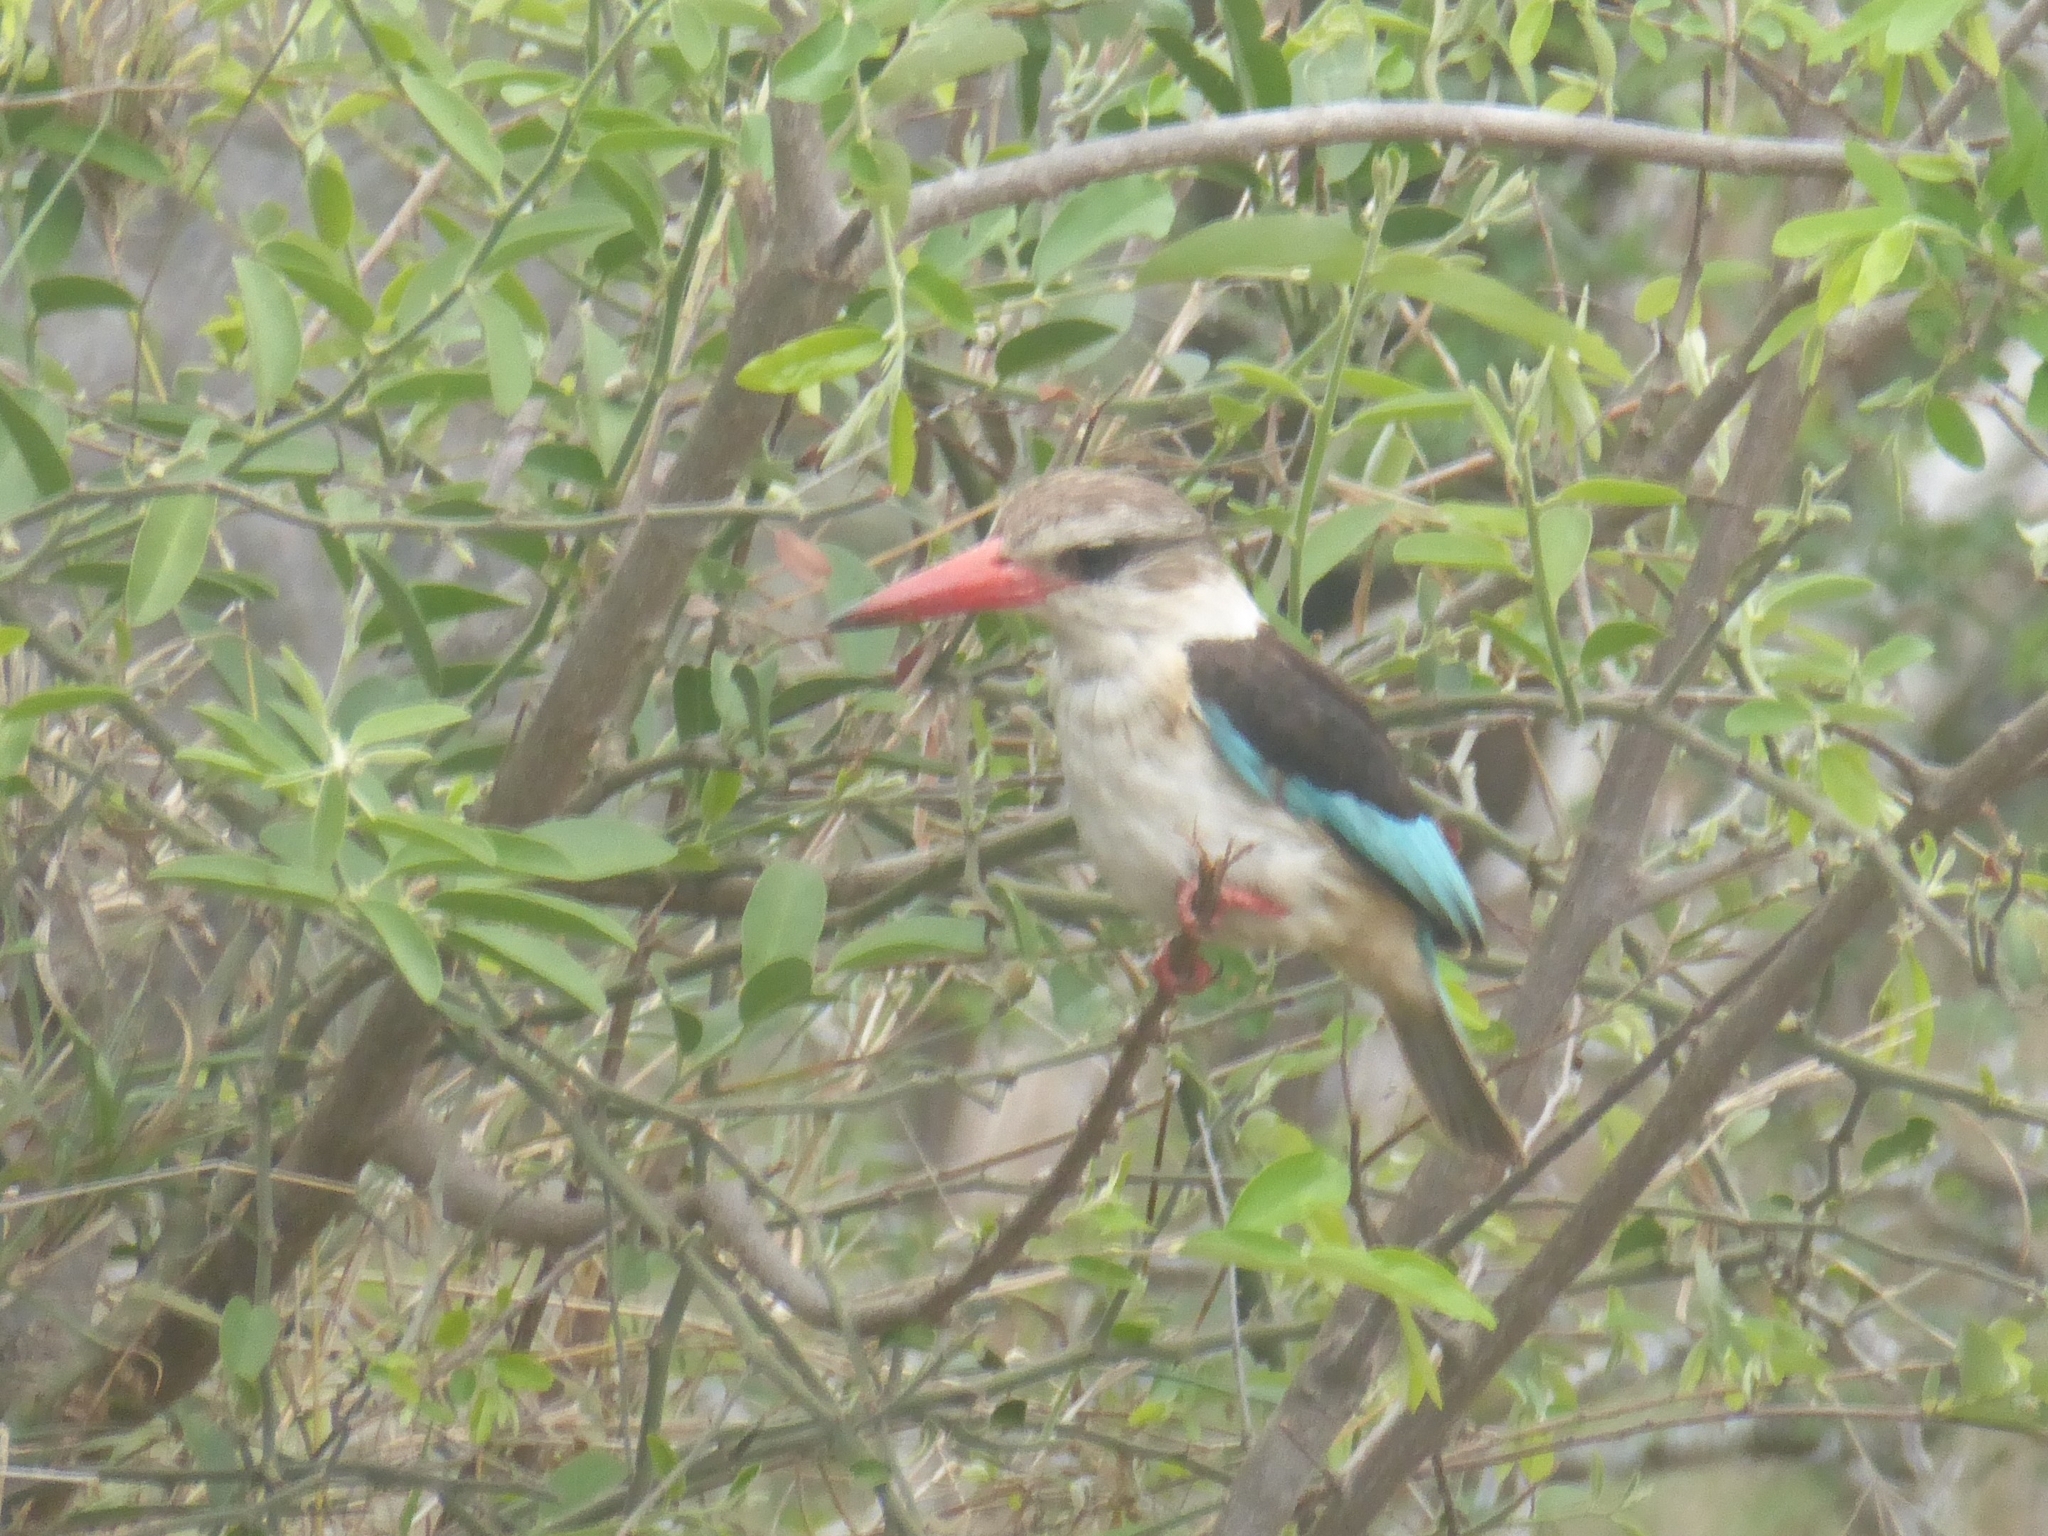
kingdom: Animalia
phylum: Chordata
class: Aves
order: Coraciiformes
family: Alcedinidae
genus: Halcyon
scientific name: Halcyon albiventris
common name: Brown-hooded kingfisher
